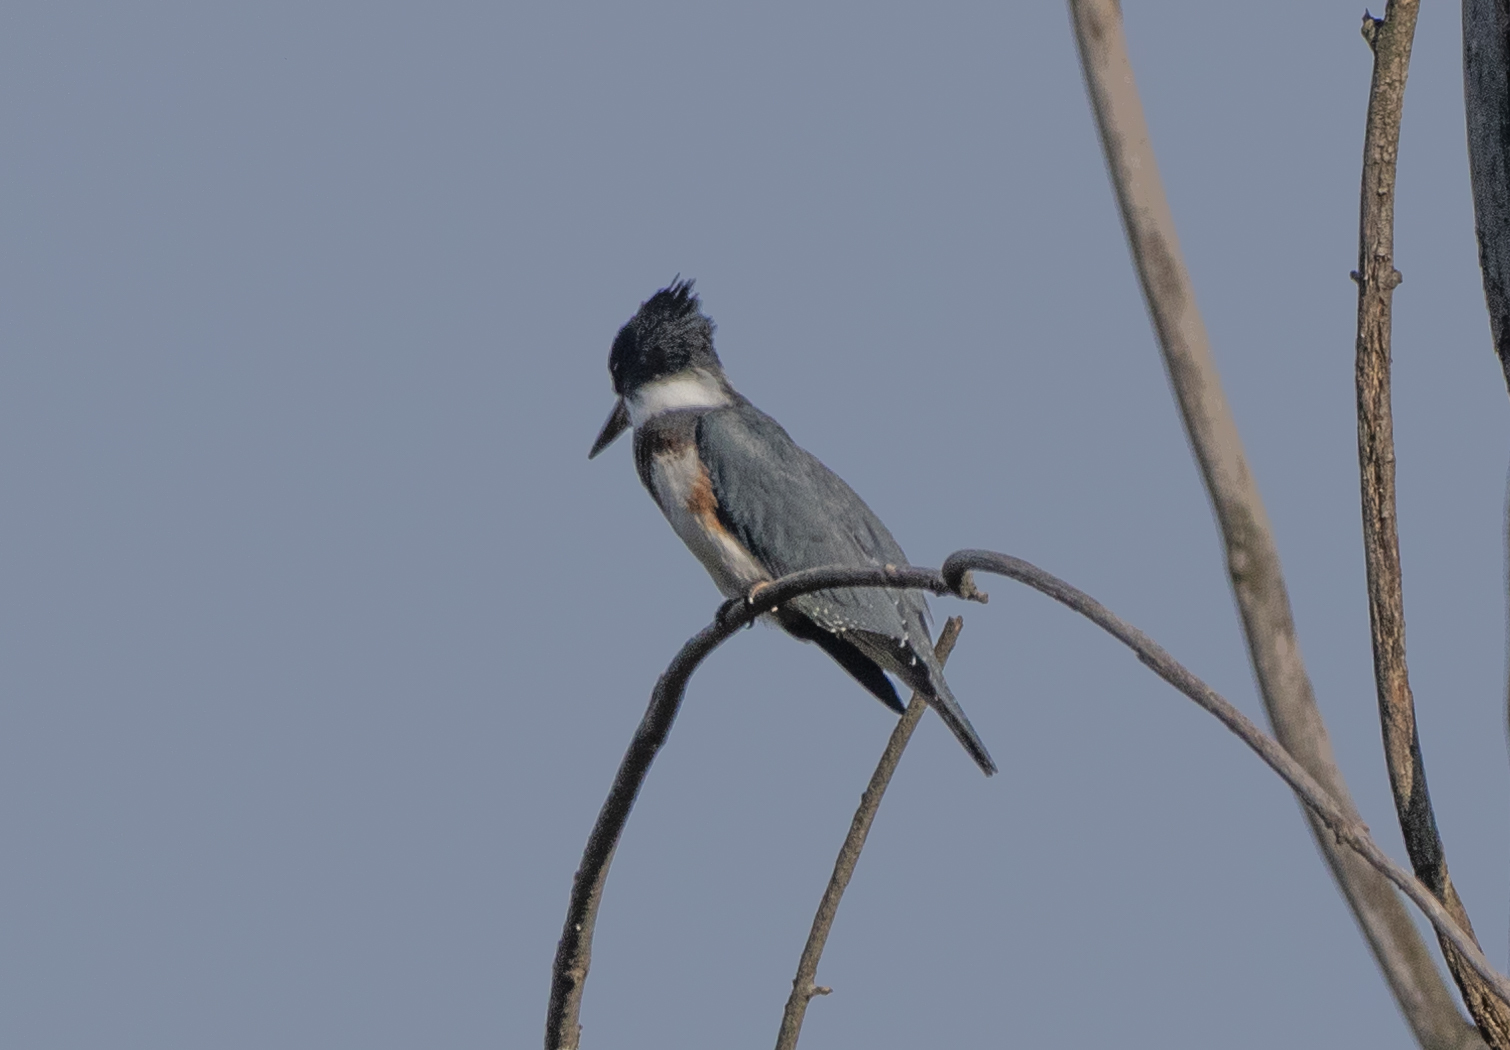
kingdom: Animalia
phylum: Chordata
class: Aves
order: Coraciiformes
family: Alcedinidae
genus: Megaceryle
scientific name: Megaceryle alcyon
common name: Belted kingfisher
